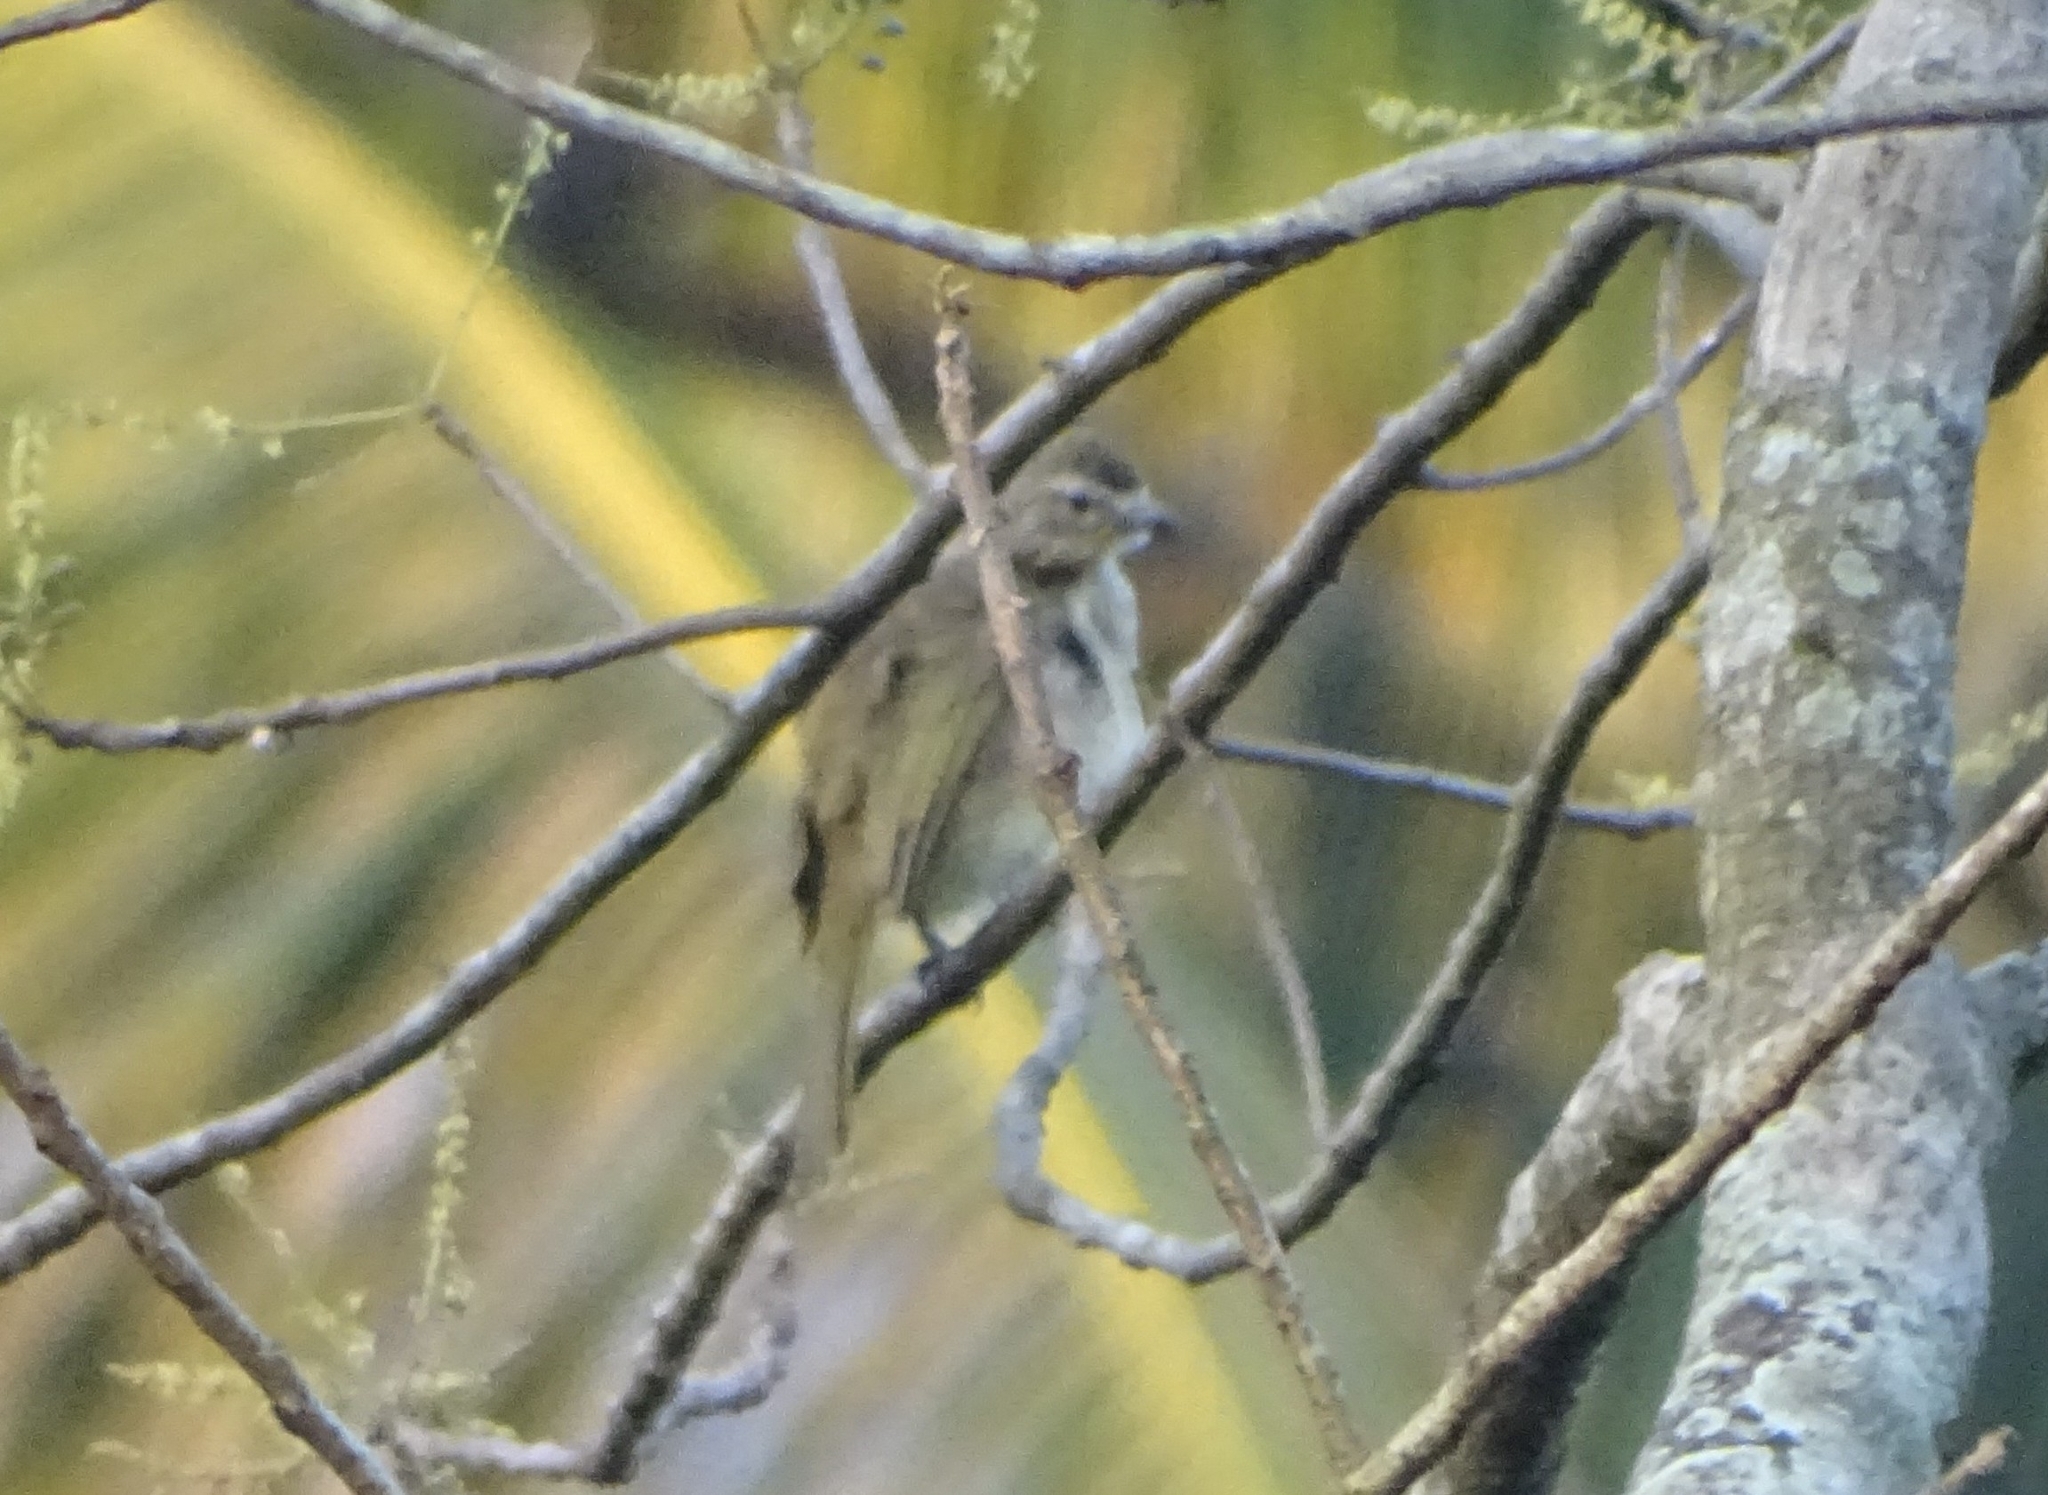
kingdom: Animalia
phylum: Chordata
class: Aves
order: Passeriformes
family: Pycnonotidae
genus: Pycnonotus
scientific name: Pycnonotus luteolus
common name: White-browed bulbul
